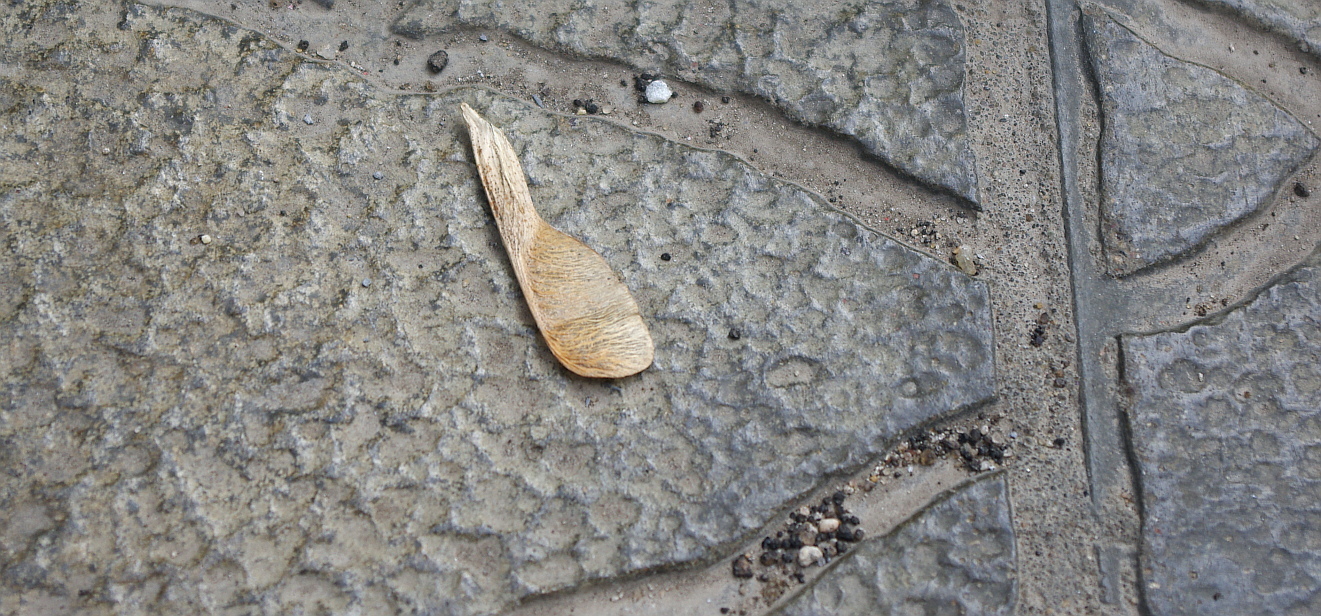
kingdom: Plantae
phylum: Tracheophyta
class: Magnoliopsida
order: Sapindales
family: Sapindaceae
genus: Acer
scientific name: Acer negundo
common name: Ashleaf maple
